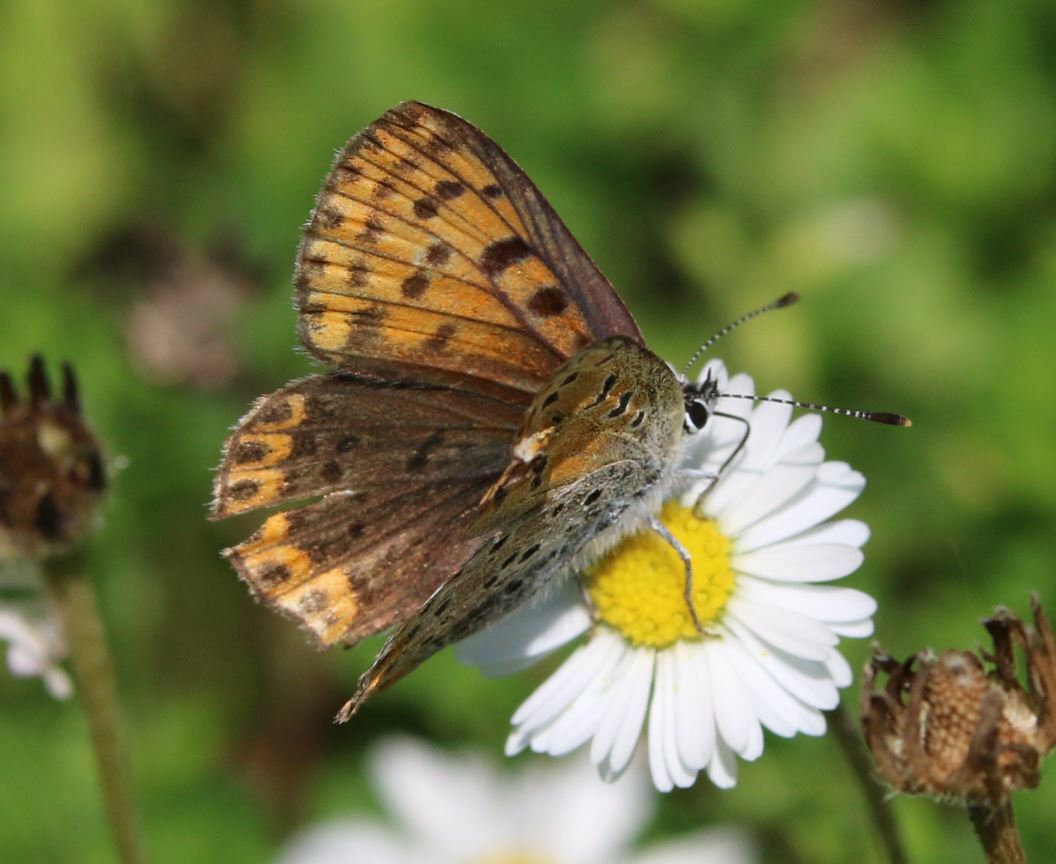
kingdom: Animalia
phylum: Arthropoda
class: Insecta
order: Lepidoptera
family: Lycaenidae
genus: Loweia
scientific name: Loweia tityrus
